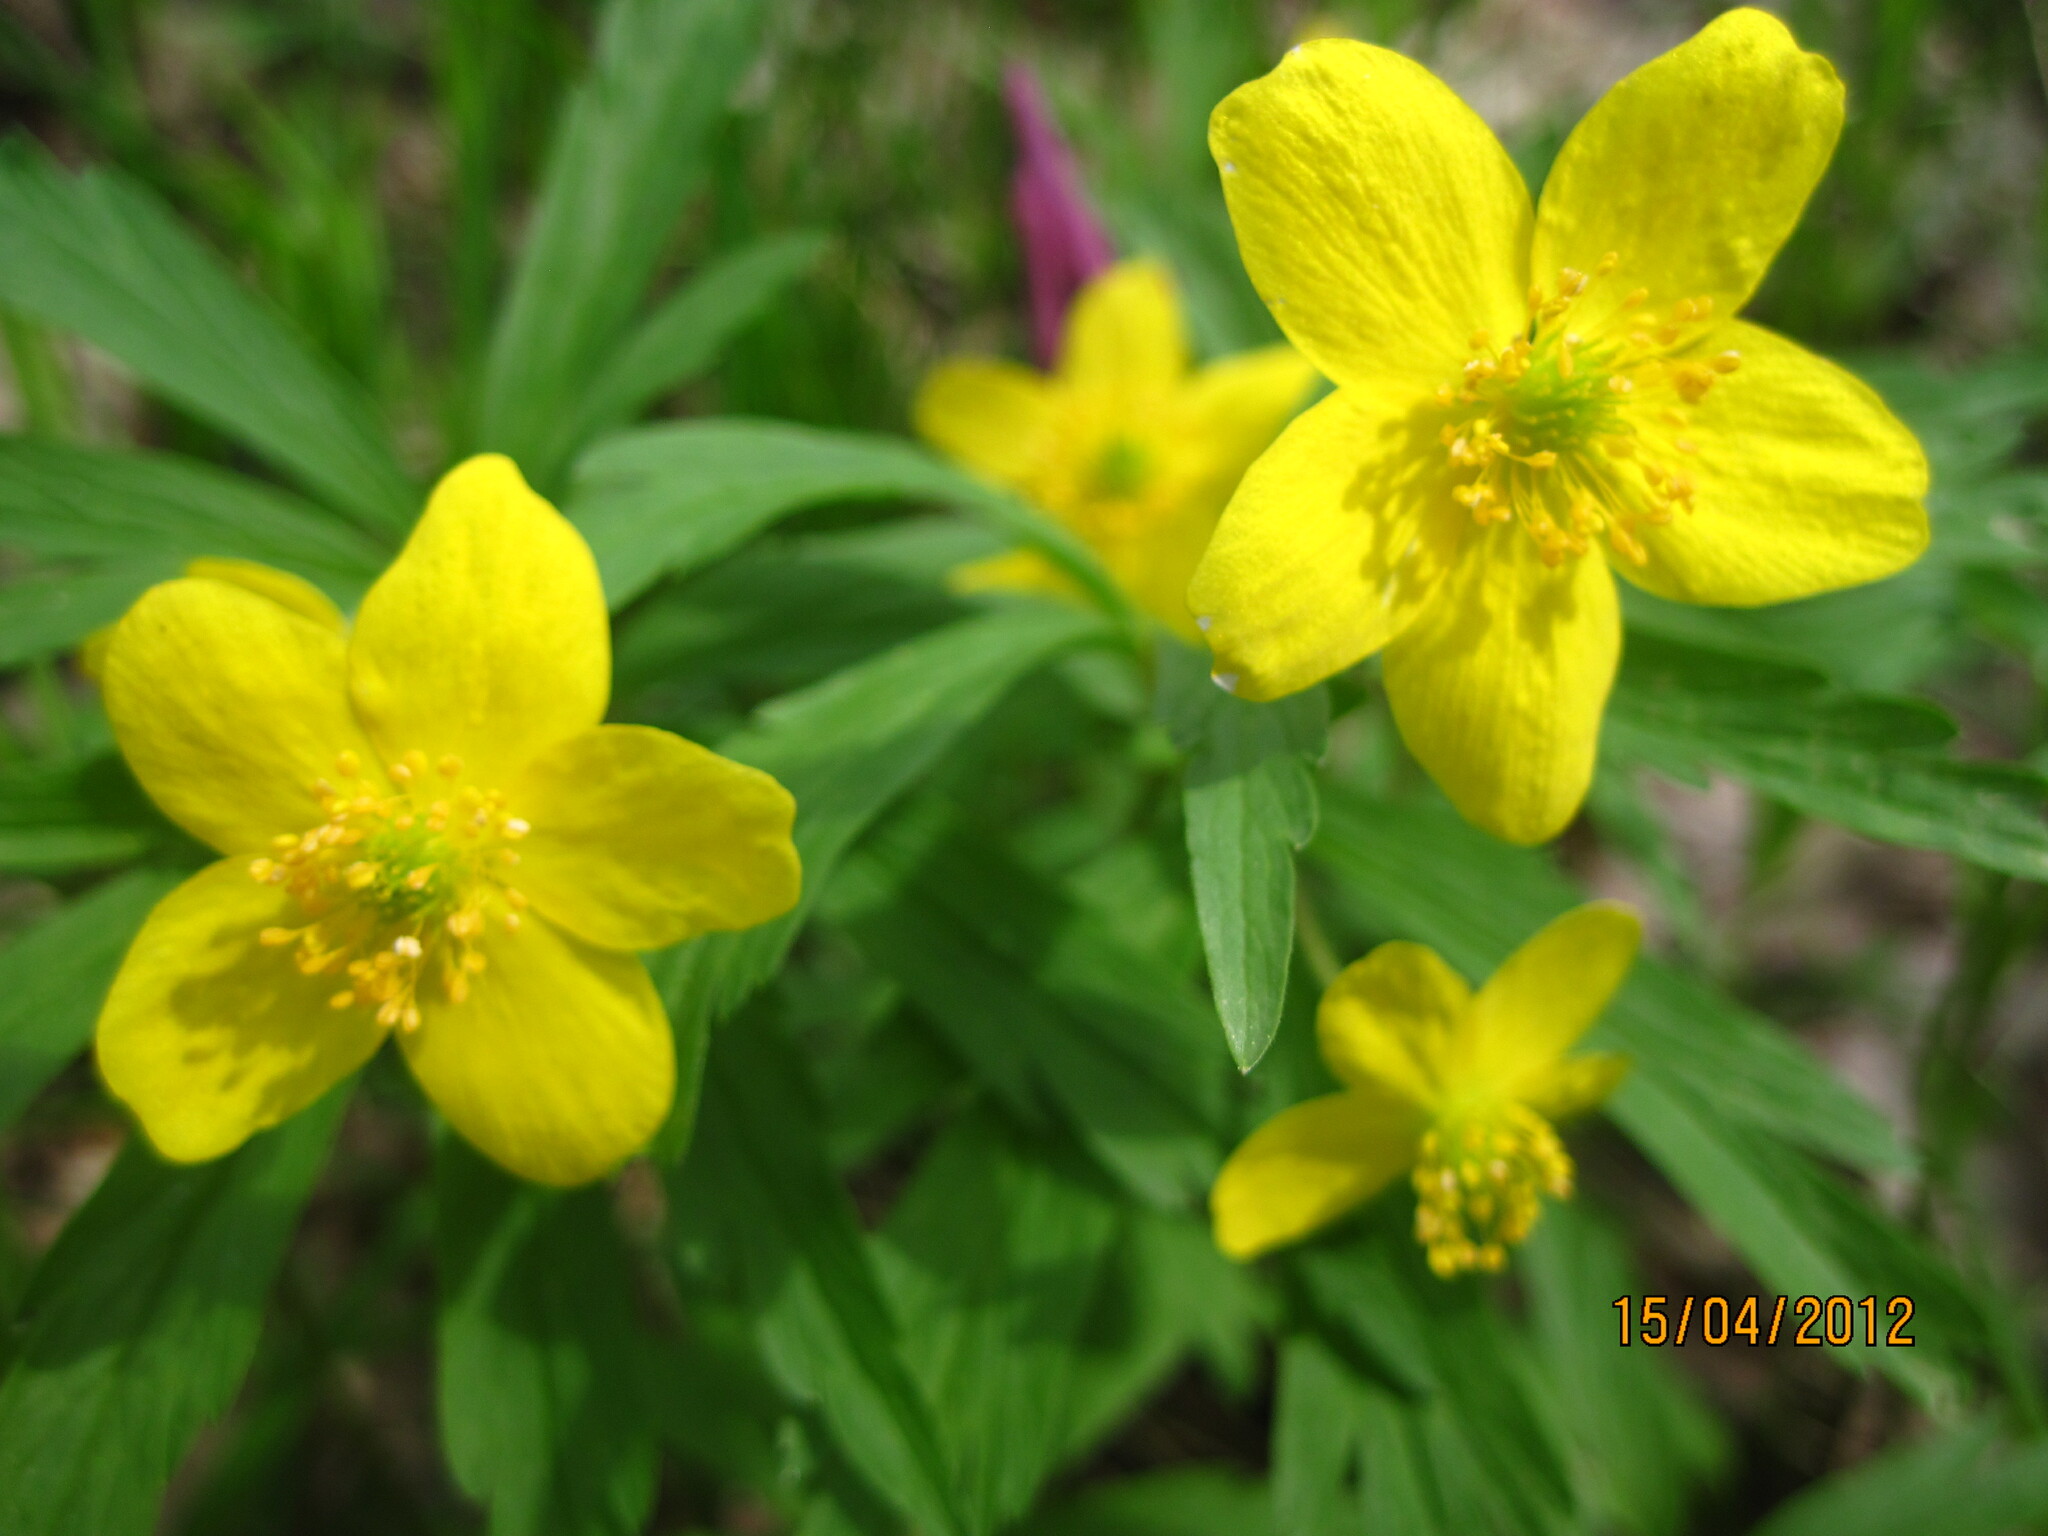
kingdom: Plantae
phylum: Tracheophyta
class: Magnoliopsida
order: Ranunculales
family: Ranunculaceae
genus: Anemone
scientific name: Anemone ranunculoides
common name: Yellow anemone
